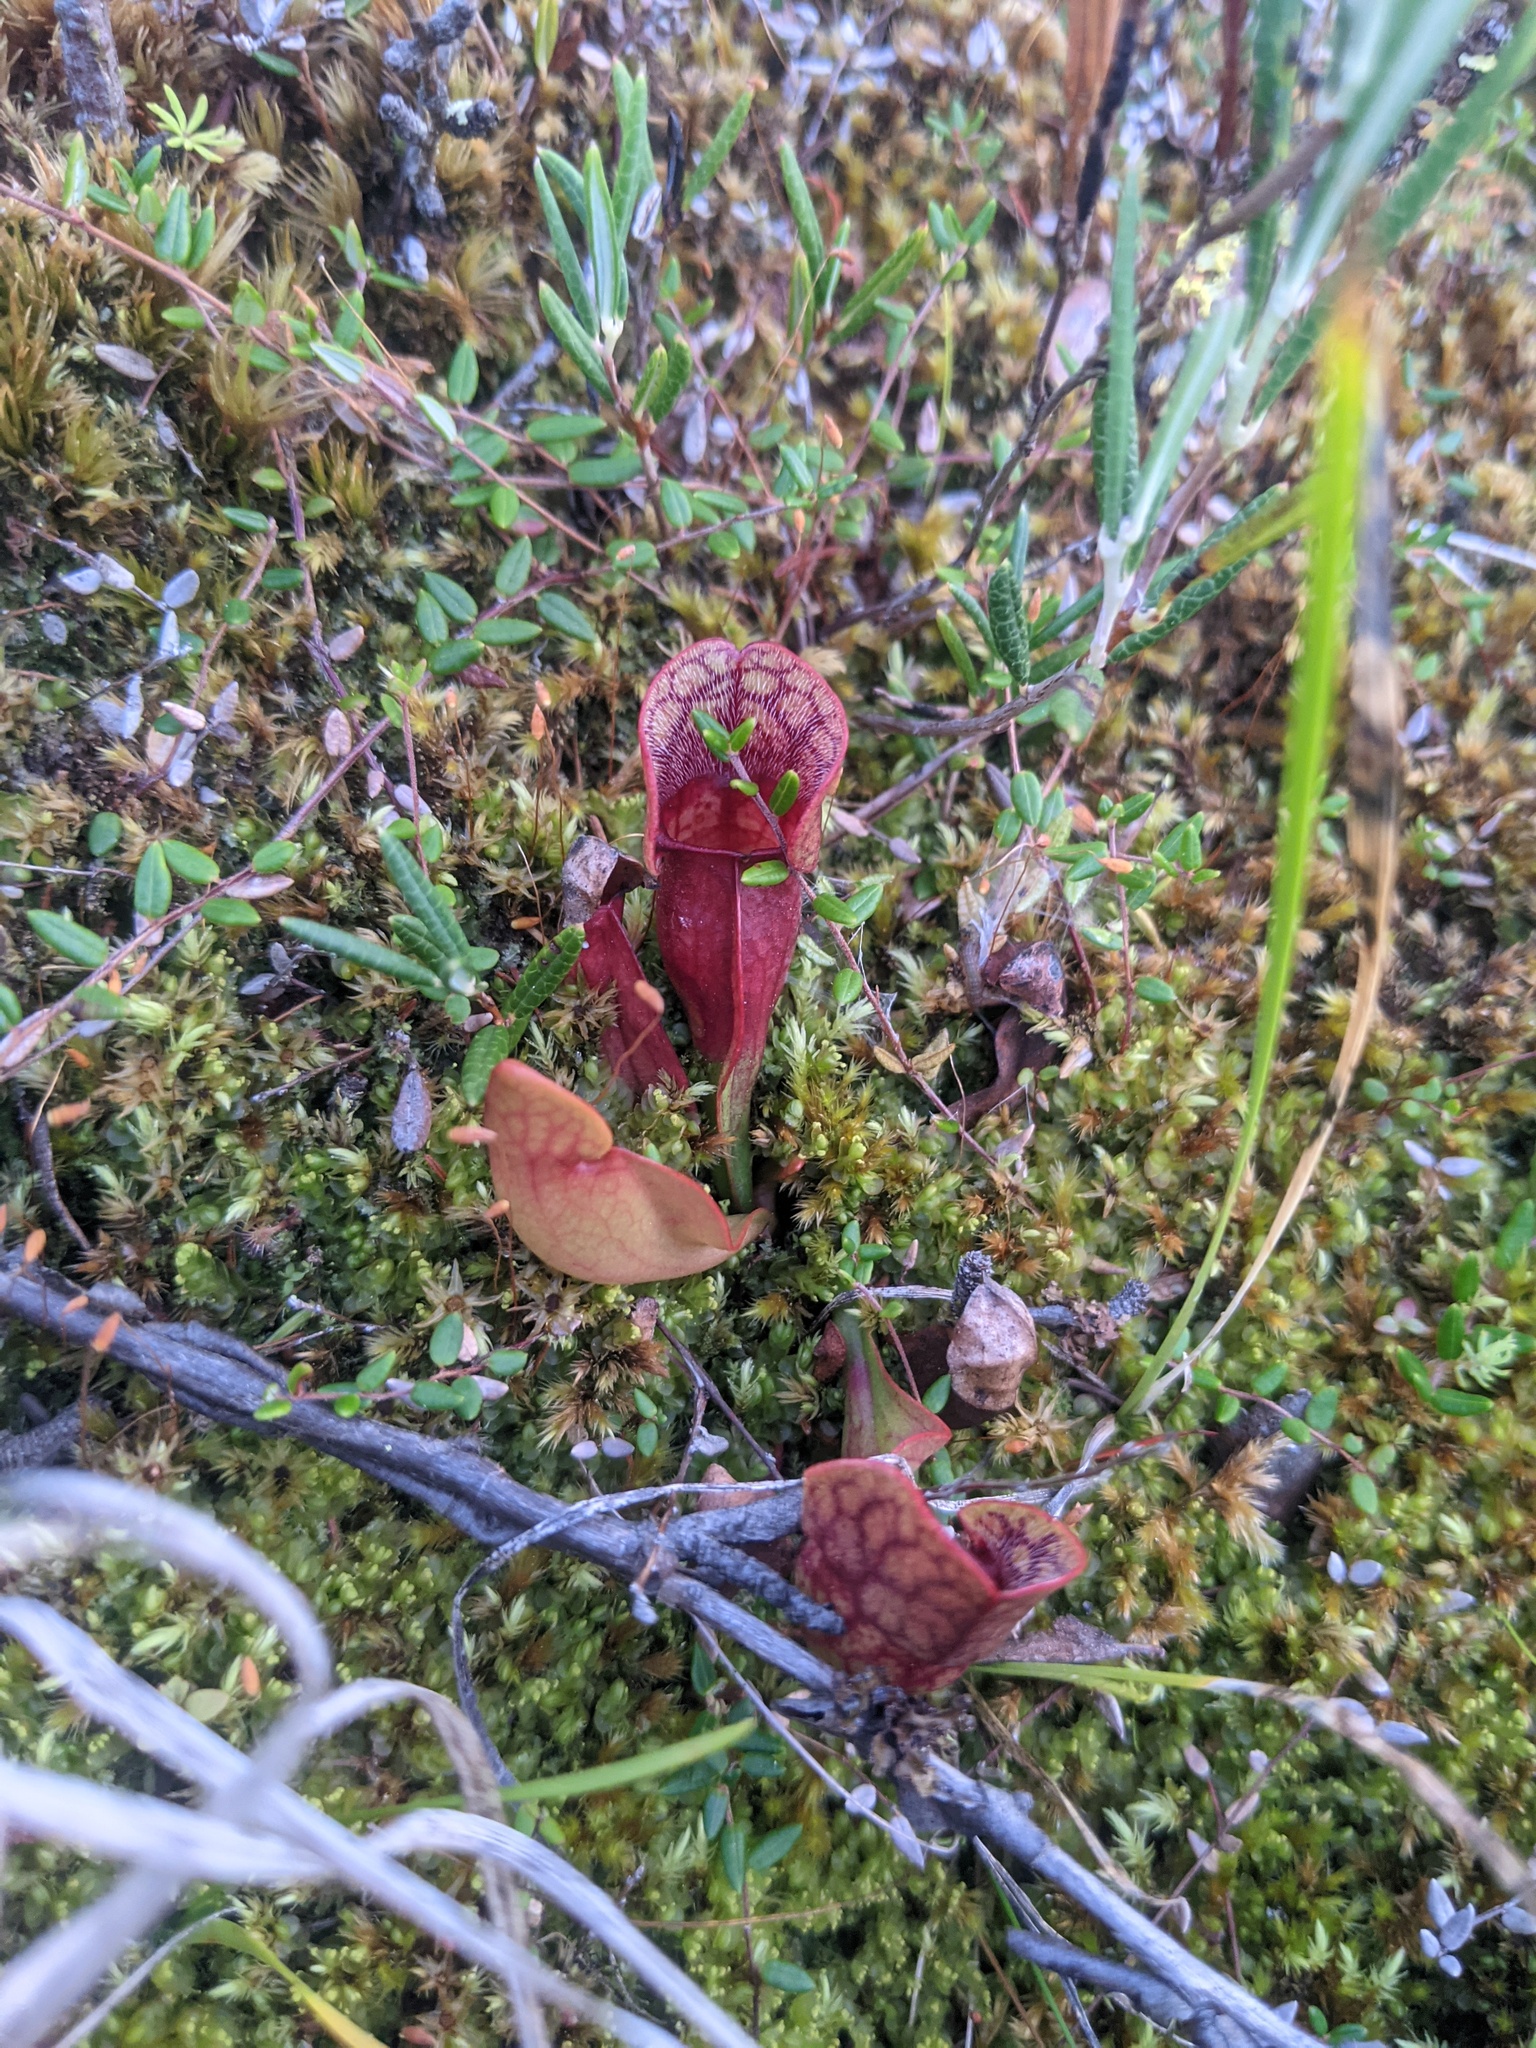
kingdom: Plantae
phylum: Tracheophyta
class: Magnoliopsida
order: Ericales
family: Sarraceniaceae
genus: Sarracenia
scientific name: Sarracenia purpurea
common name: Pitcherplant
